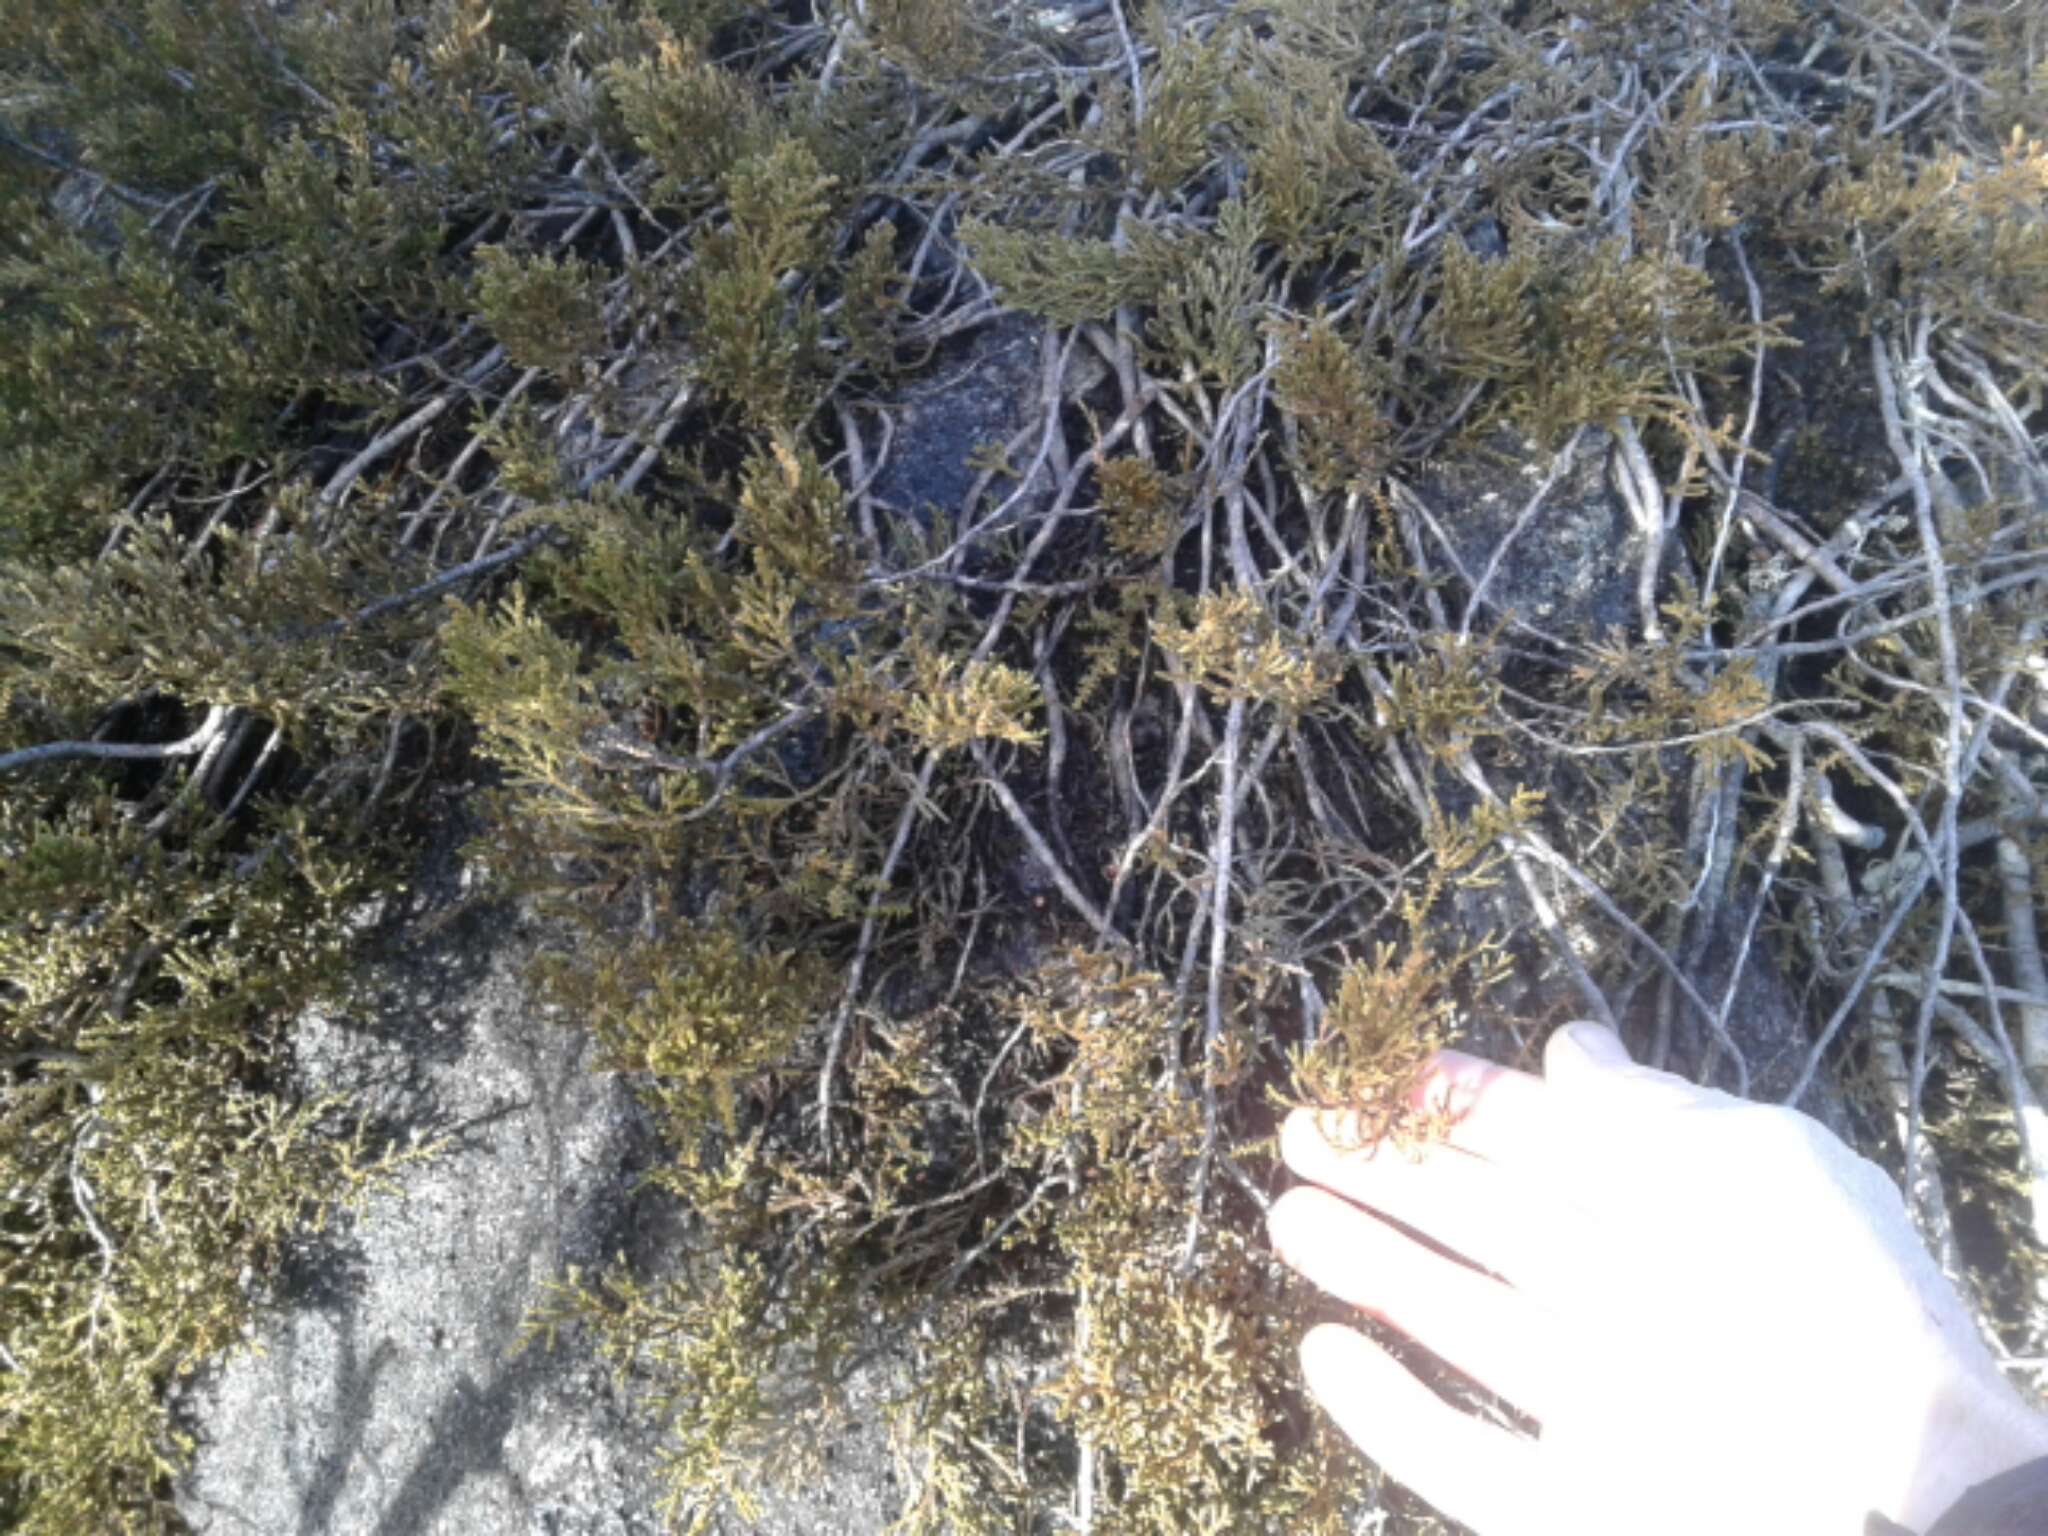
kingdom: Plantae
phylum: Tracheophyta
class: Pinopsida
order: Pinales
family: Podocarpaceae
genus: Lepidothamnus
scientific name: Lepidothamnus laxifolius
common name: Pygmy pine
